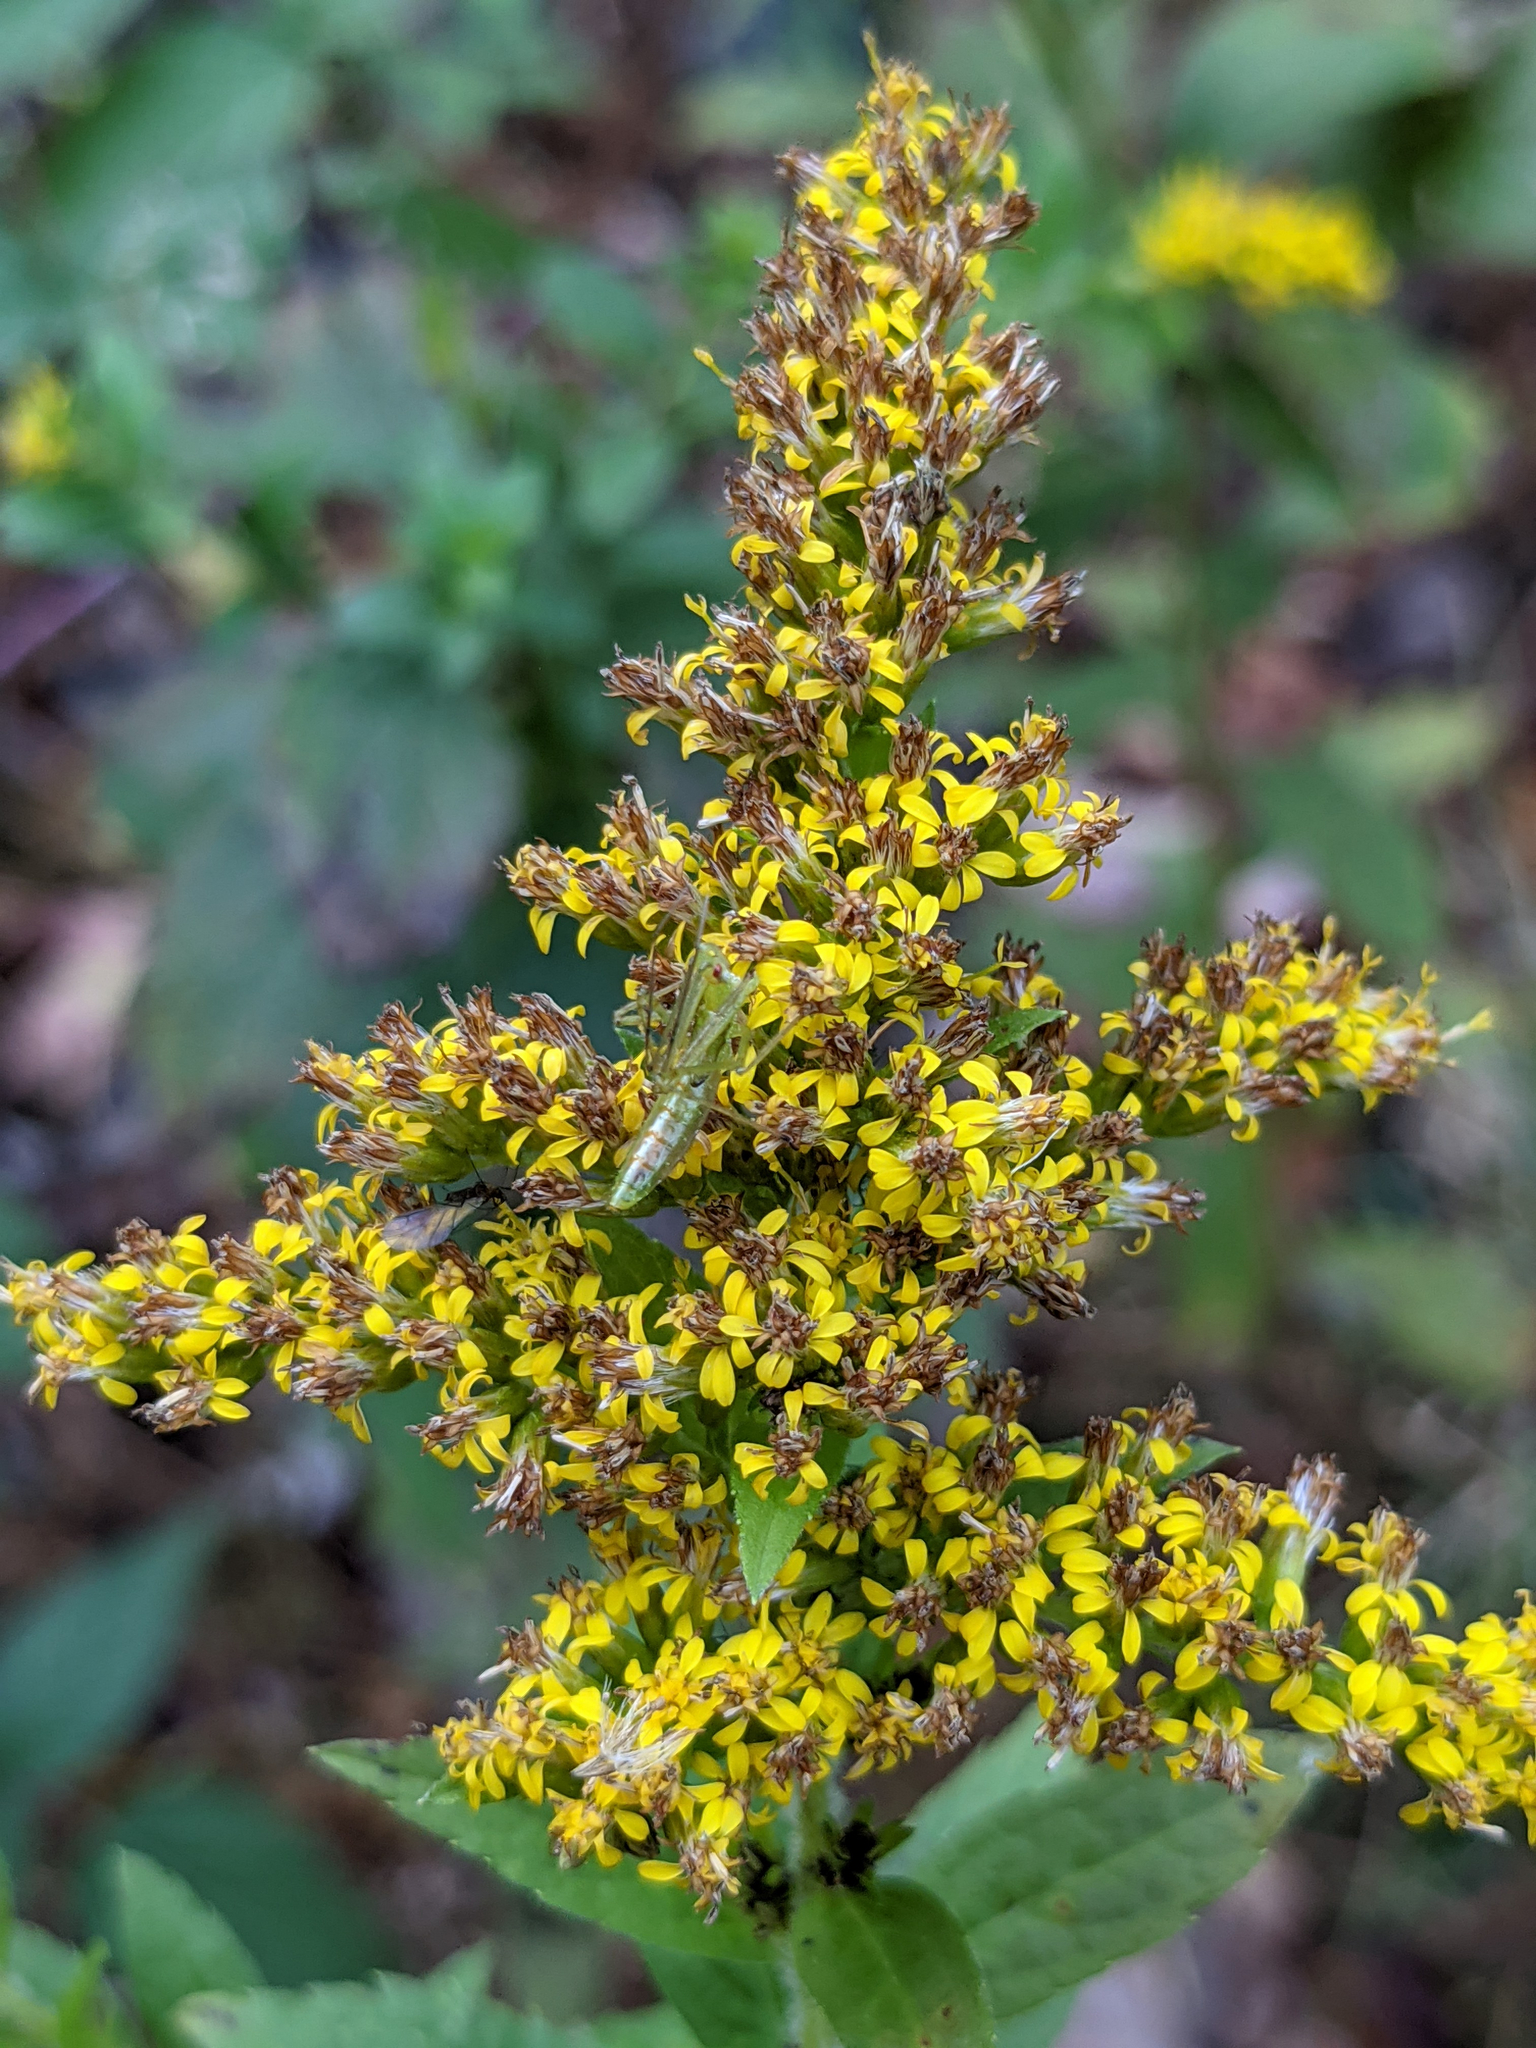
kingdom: Plantae
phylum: Tracheophyta
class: Magnoliopsida
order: Asterales
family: Asteraceae
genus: Solidago
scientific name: Solidago rugosa
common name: Rough-stemmed goldenrod
